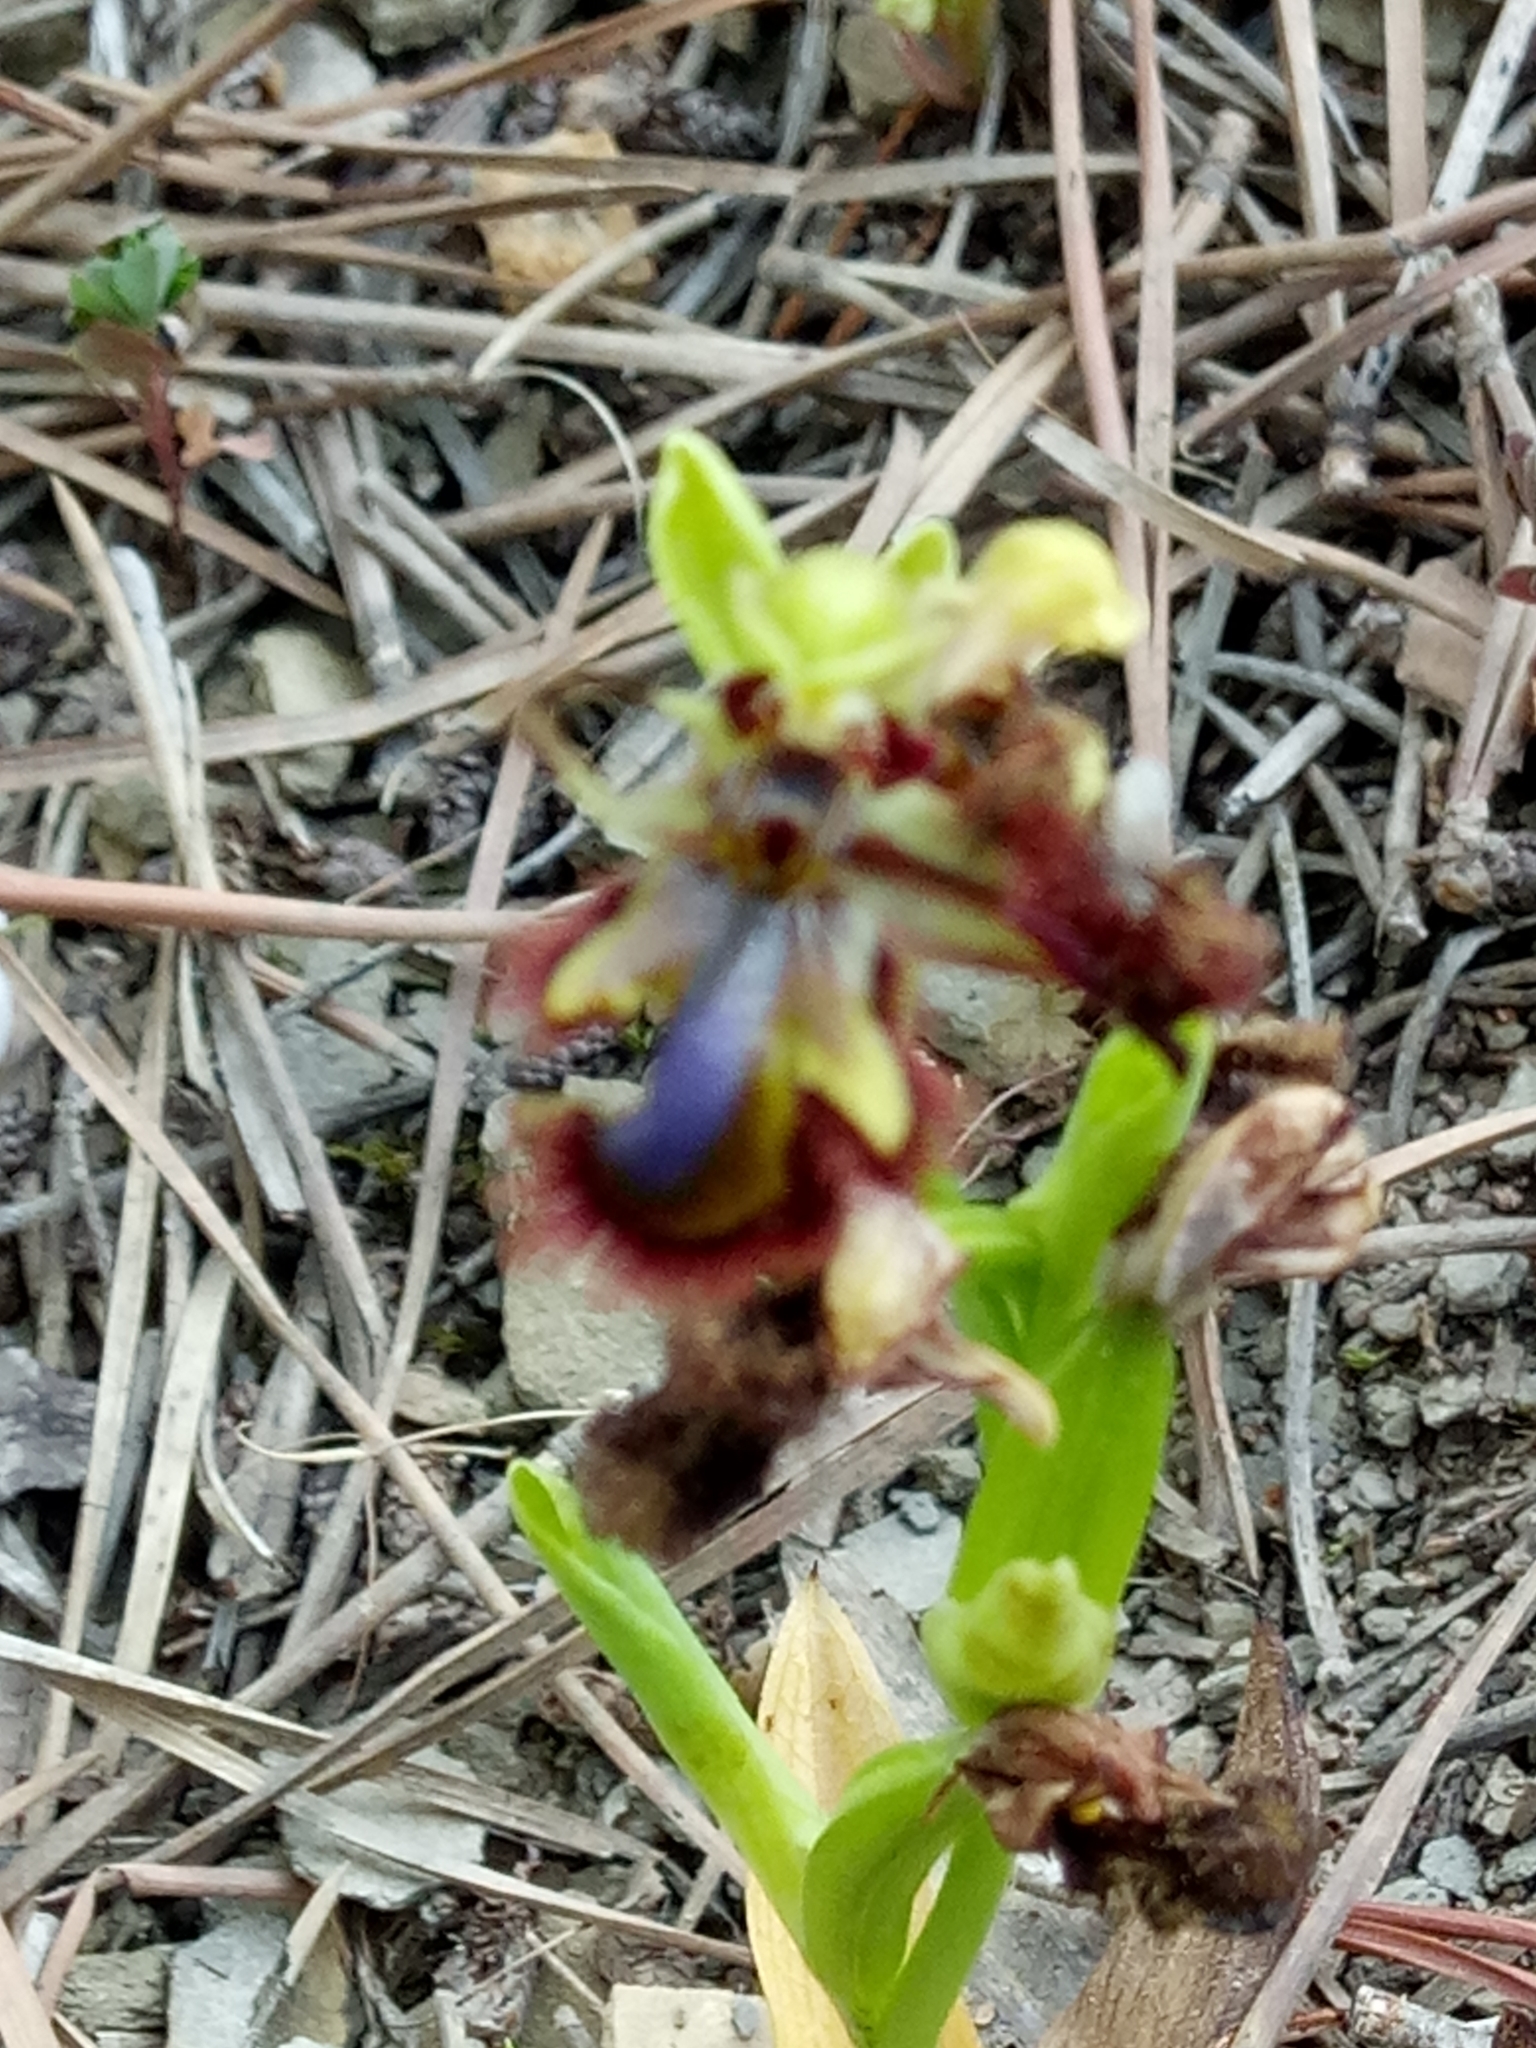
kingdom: Plantae
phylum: Tracheophyta
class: Liliopsida
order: Asparagales
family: Orchidaceae
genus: Ophrys
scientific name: Ophrys speculum
